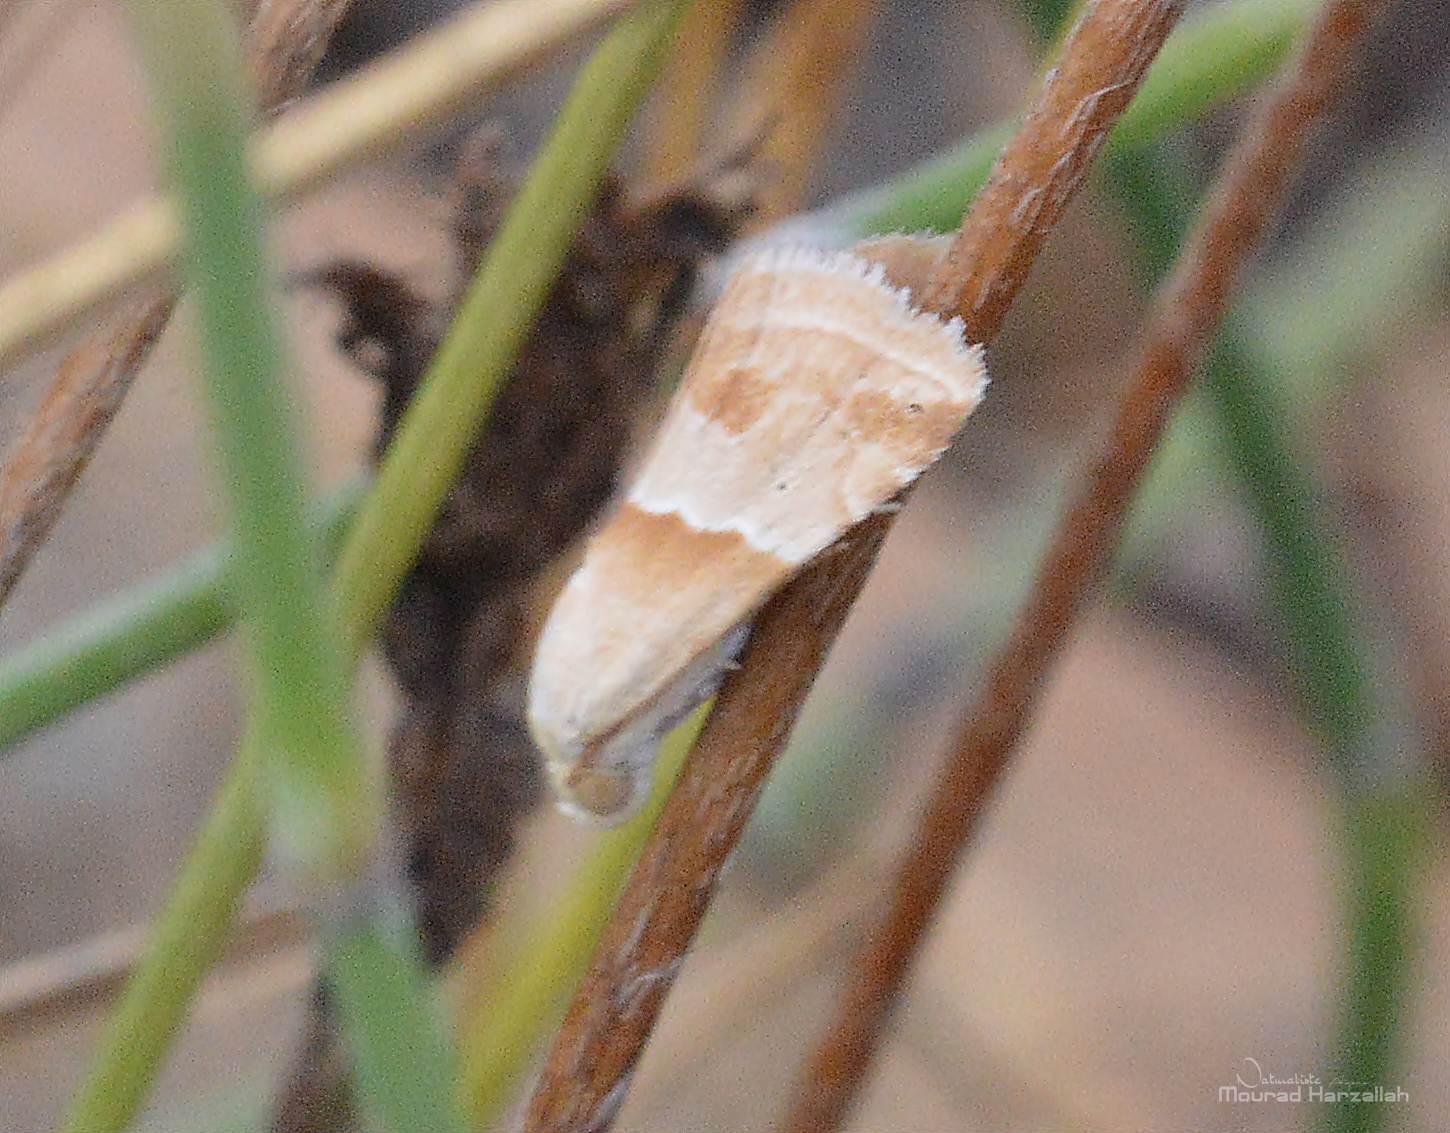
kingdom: Animalia
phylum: Arthropoda
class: Insecta
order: Lepidoptera
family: Noctuidae
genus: Eublemma
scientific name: Eublemma parva
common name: Small marbled
